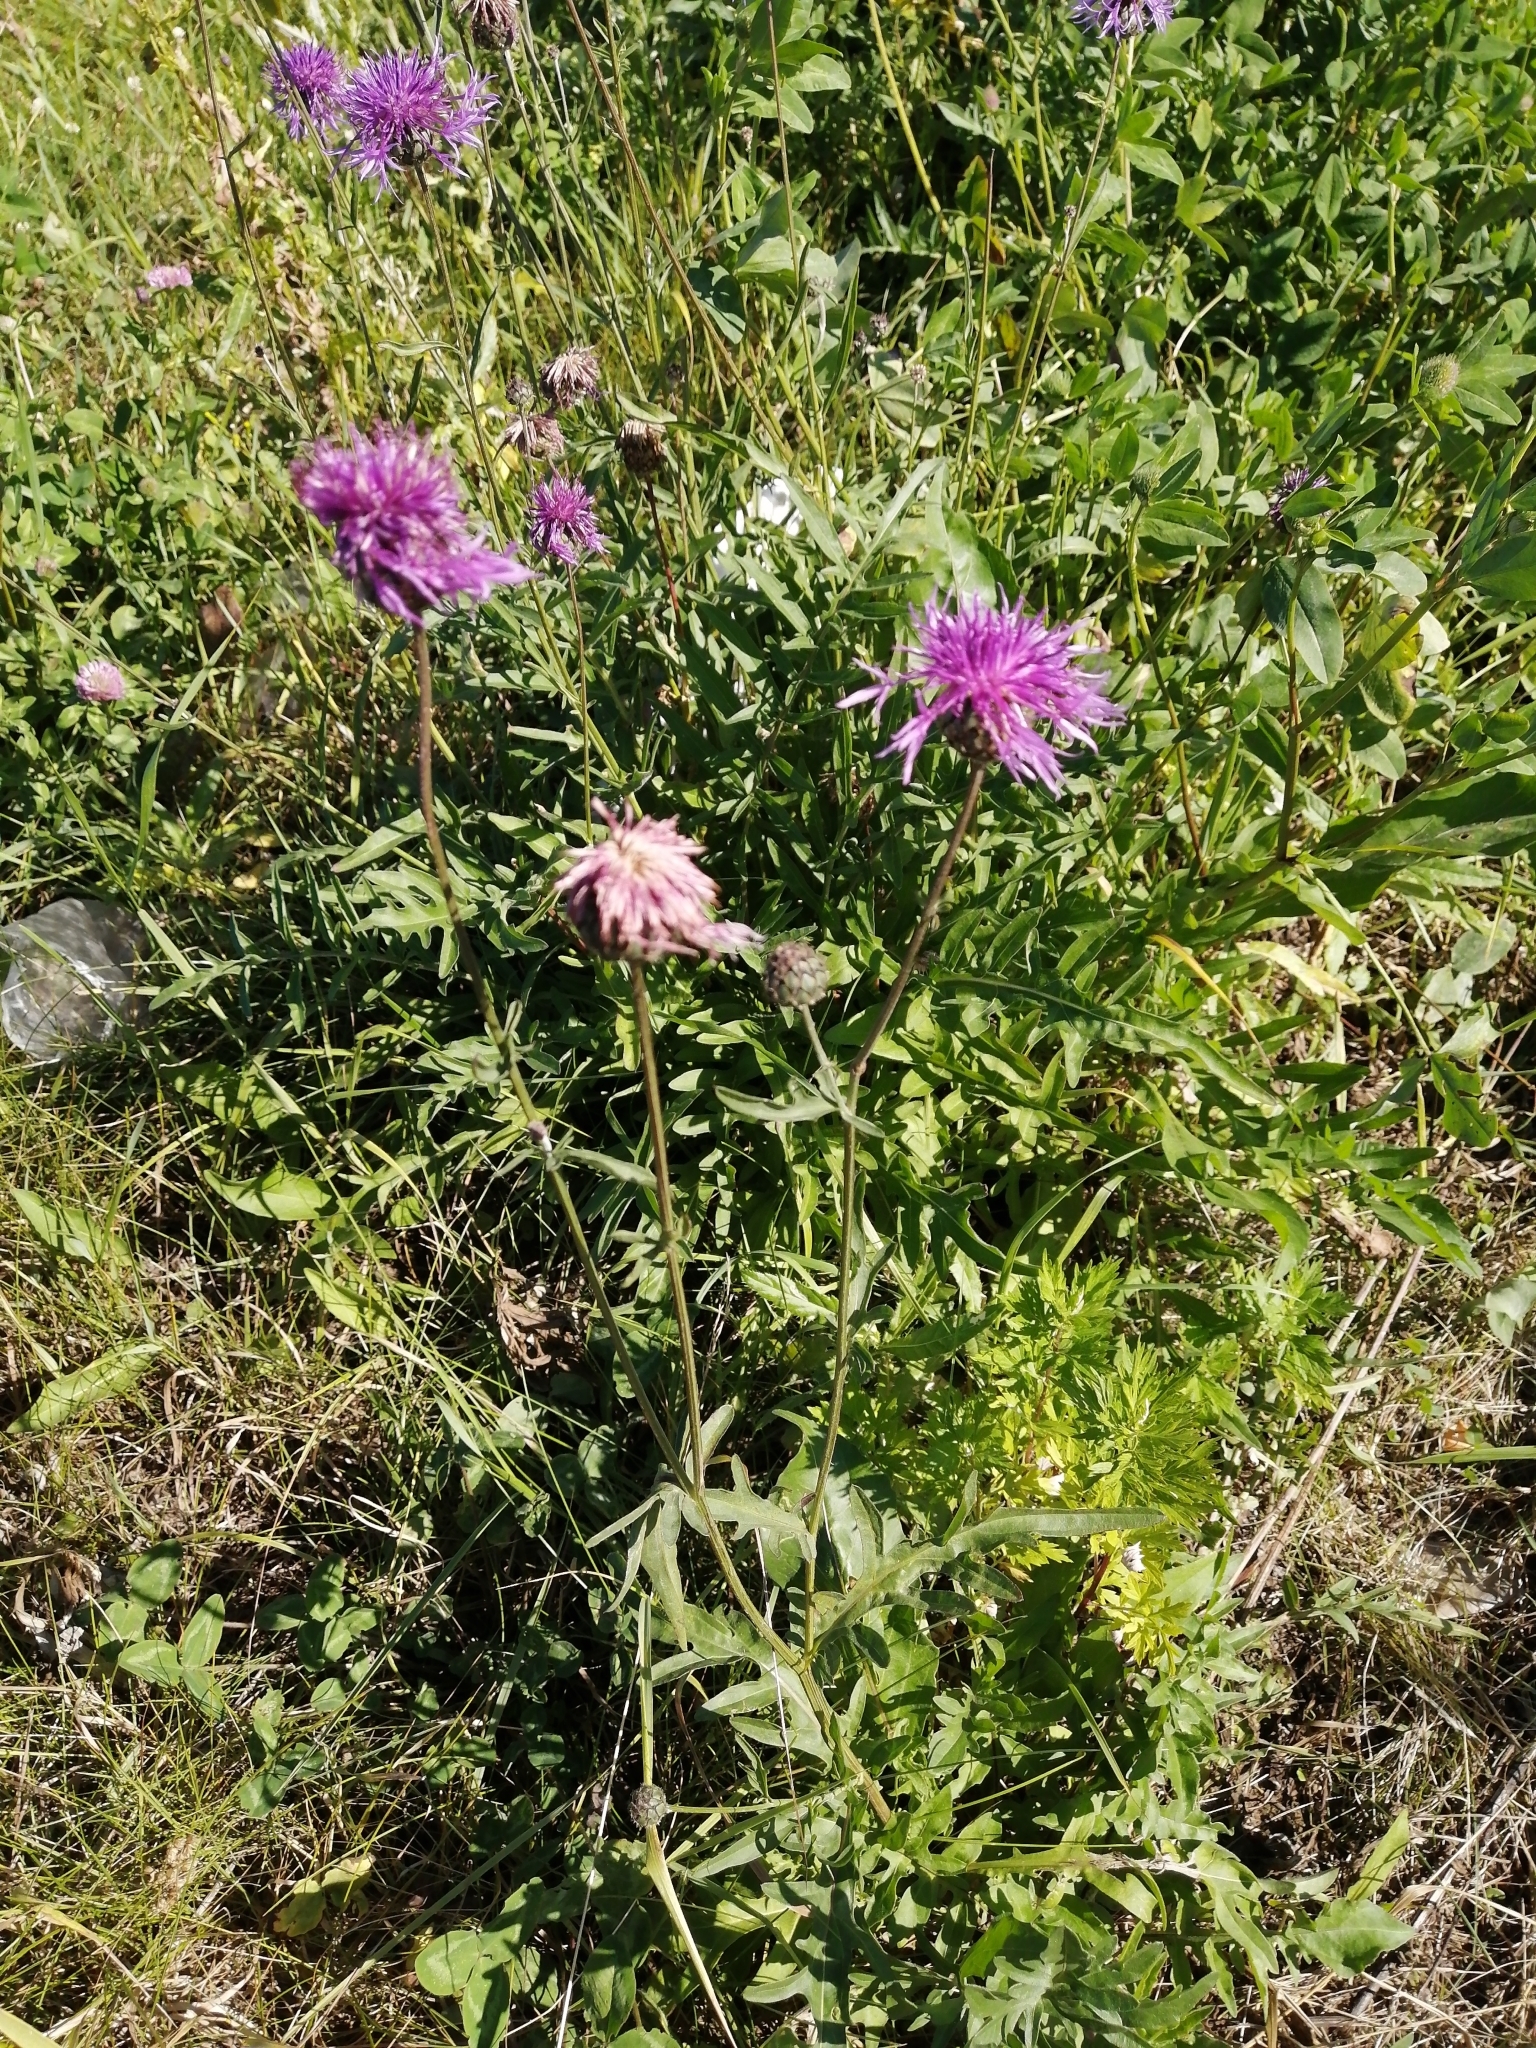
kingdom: Plantae
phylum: Tracheophyta
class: Magnoliopsida
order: Asterales
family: Asteraceae
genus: Centaurea
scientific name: Centaurea scabiosa
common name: Greater knapweed
